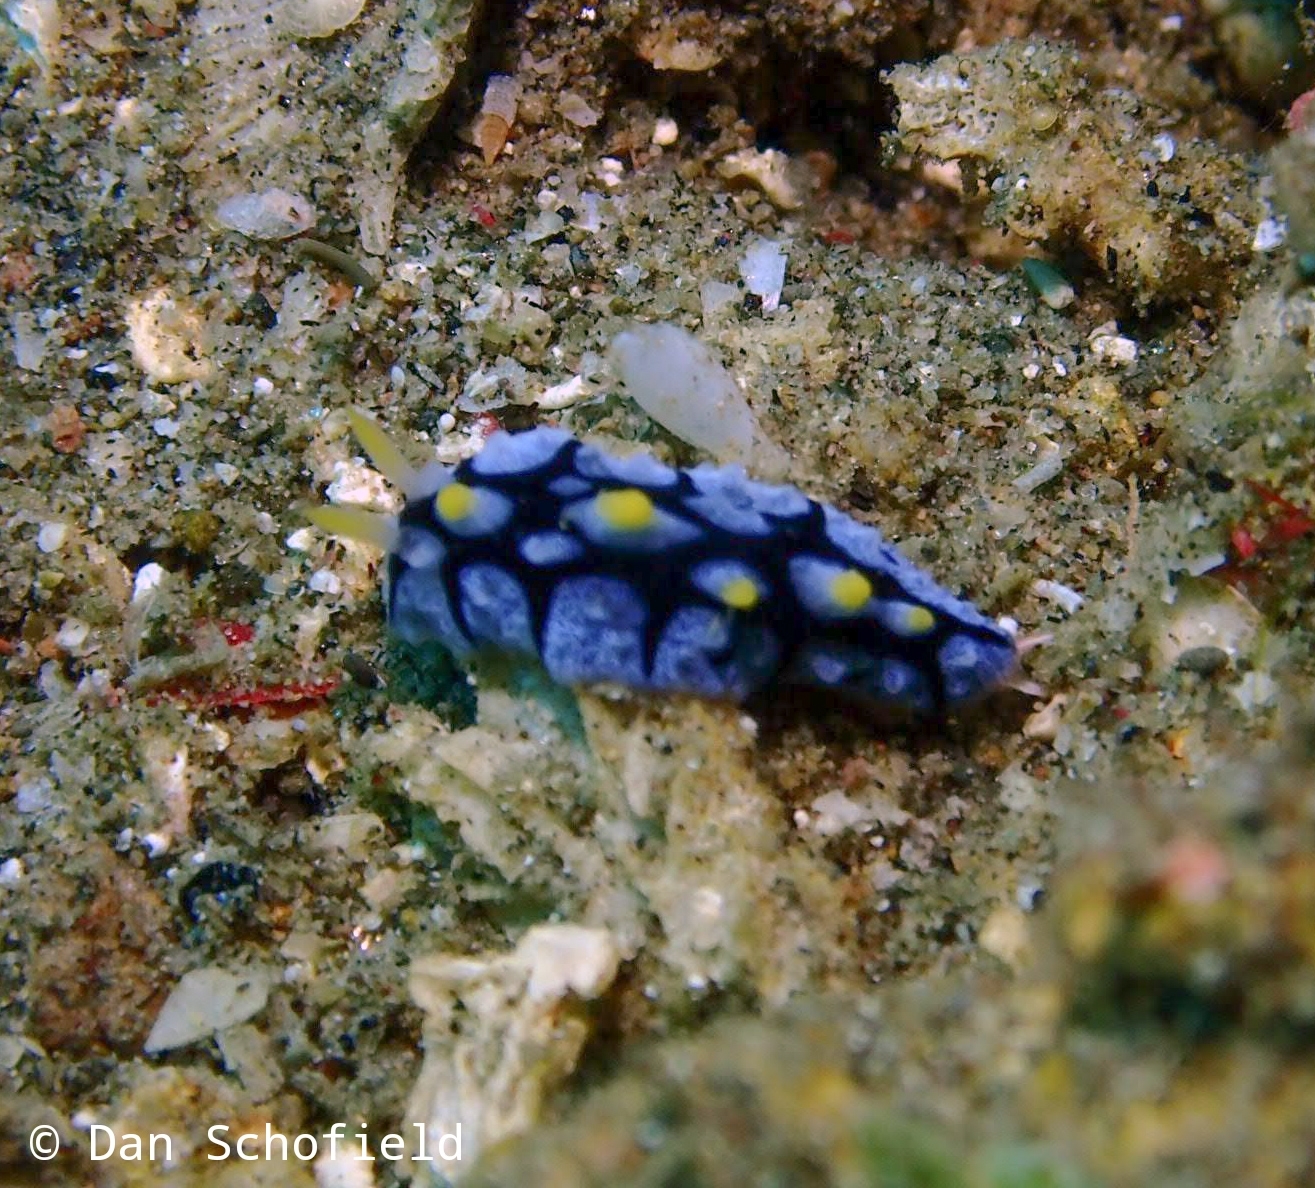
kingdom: Animalia
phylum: Mollusca
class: Gastropoda
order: Nudibranchia
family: Phyllidiidae
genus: Phyllidia
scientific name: Phyllidia picta
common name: Black-rayed phyllidia
